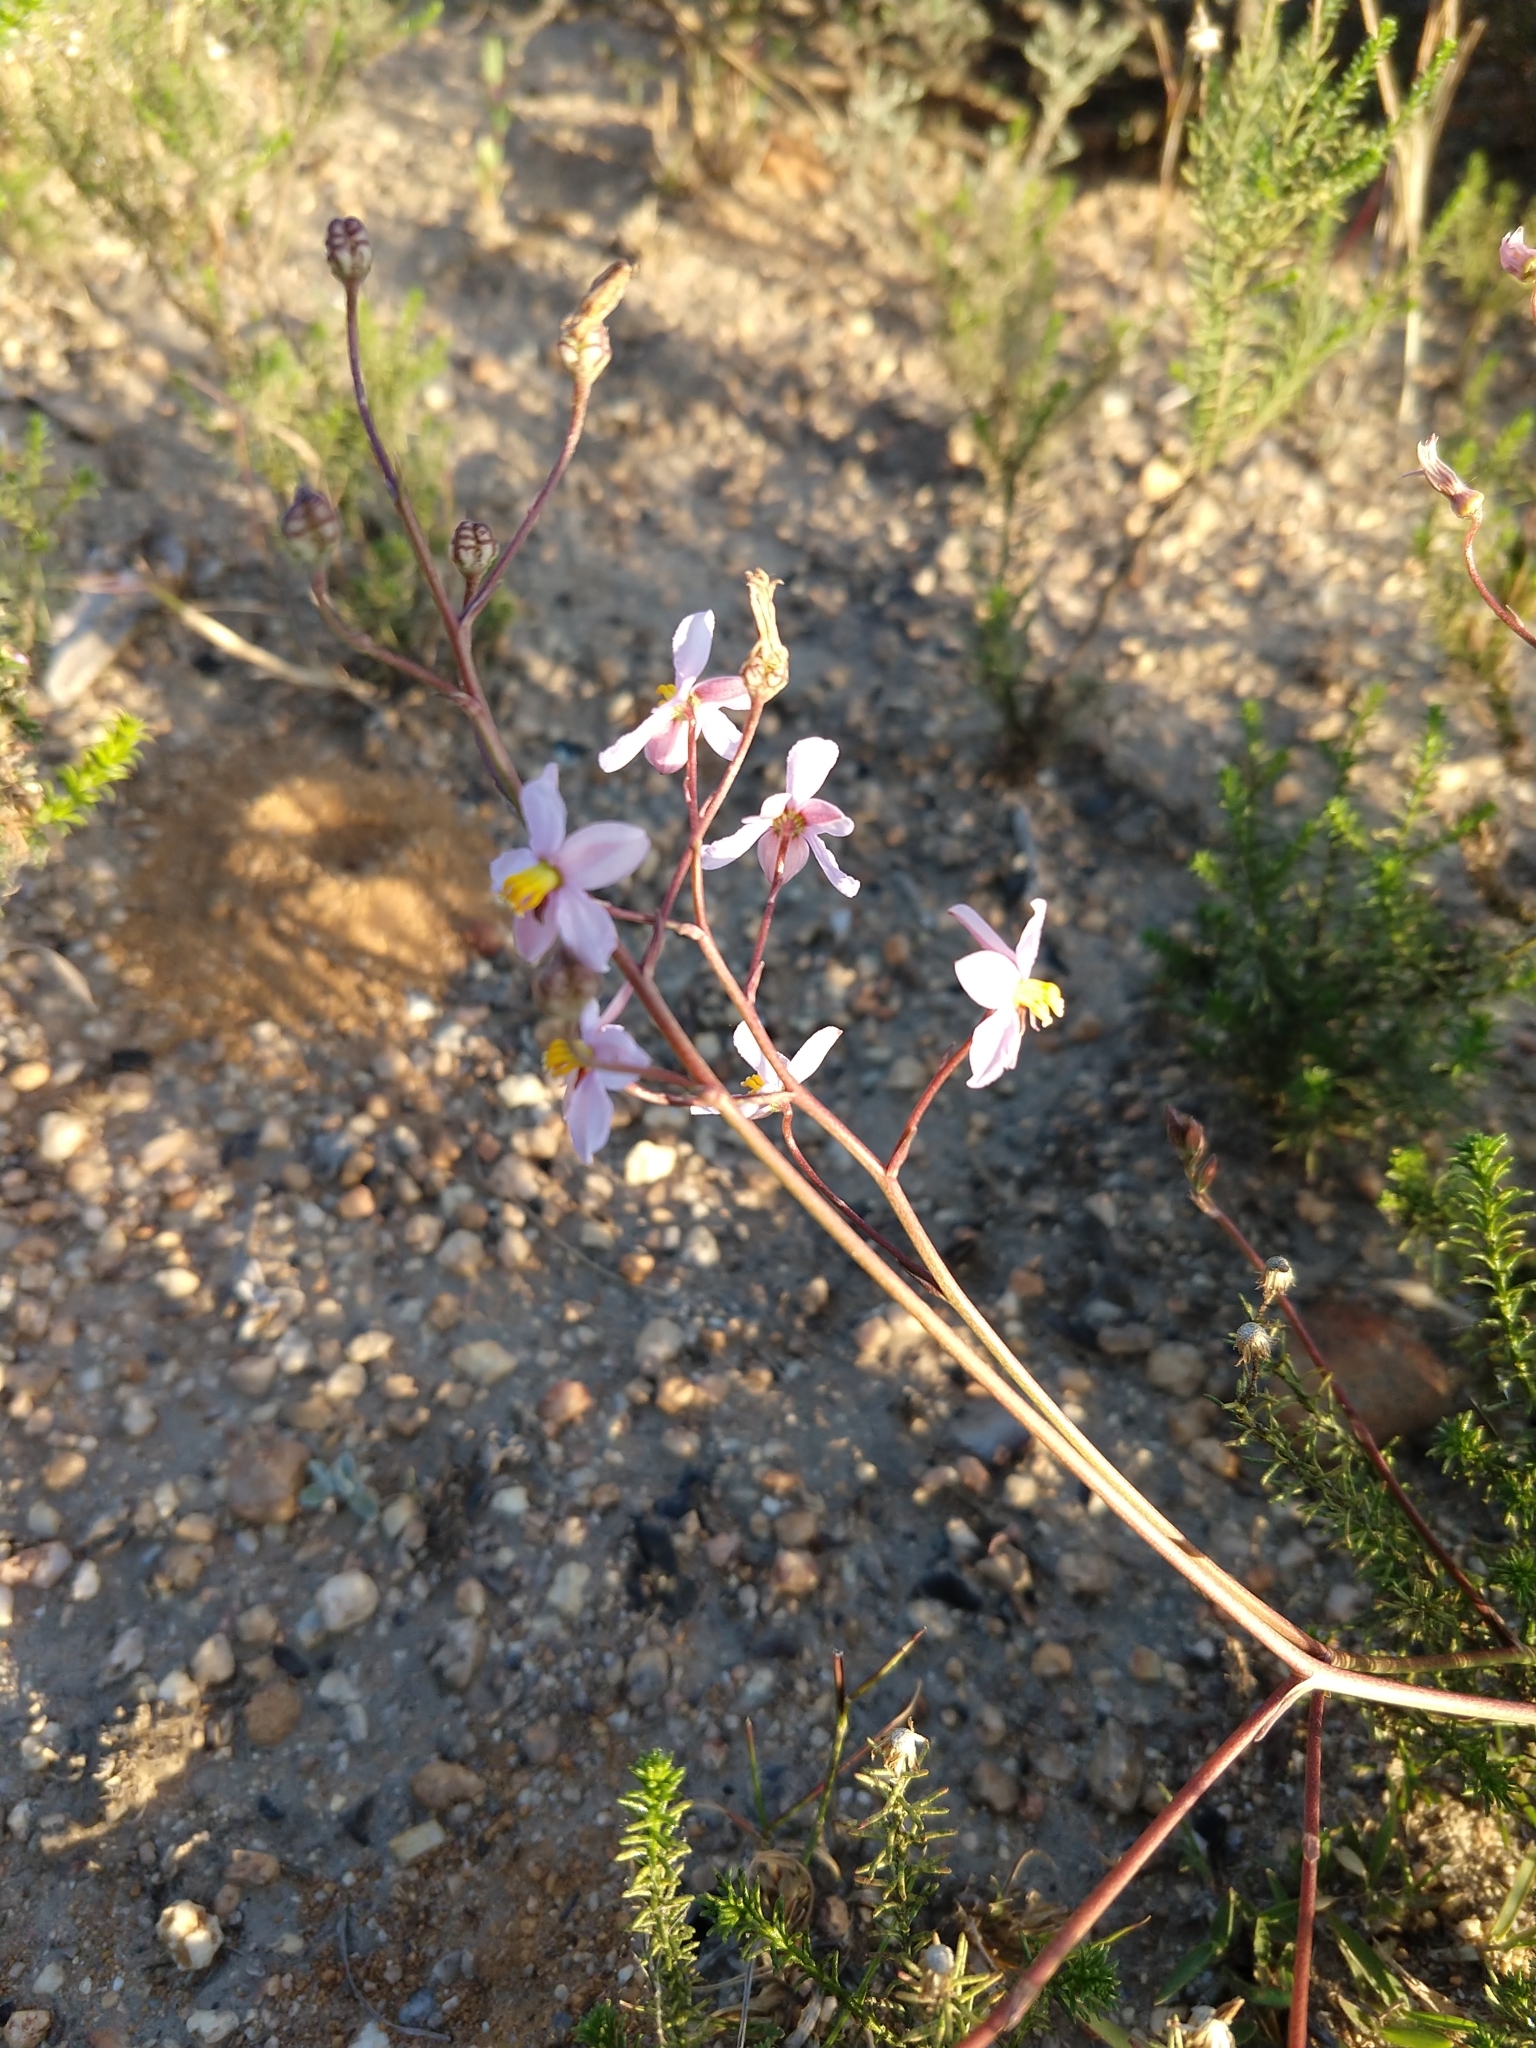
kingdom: Plantae
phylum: Tracheophyta
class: Liliopsida
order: Asparagales
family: Tecophilaeaceae
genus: Cyanella
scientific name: Cyanella hyacinthoides
